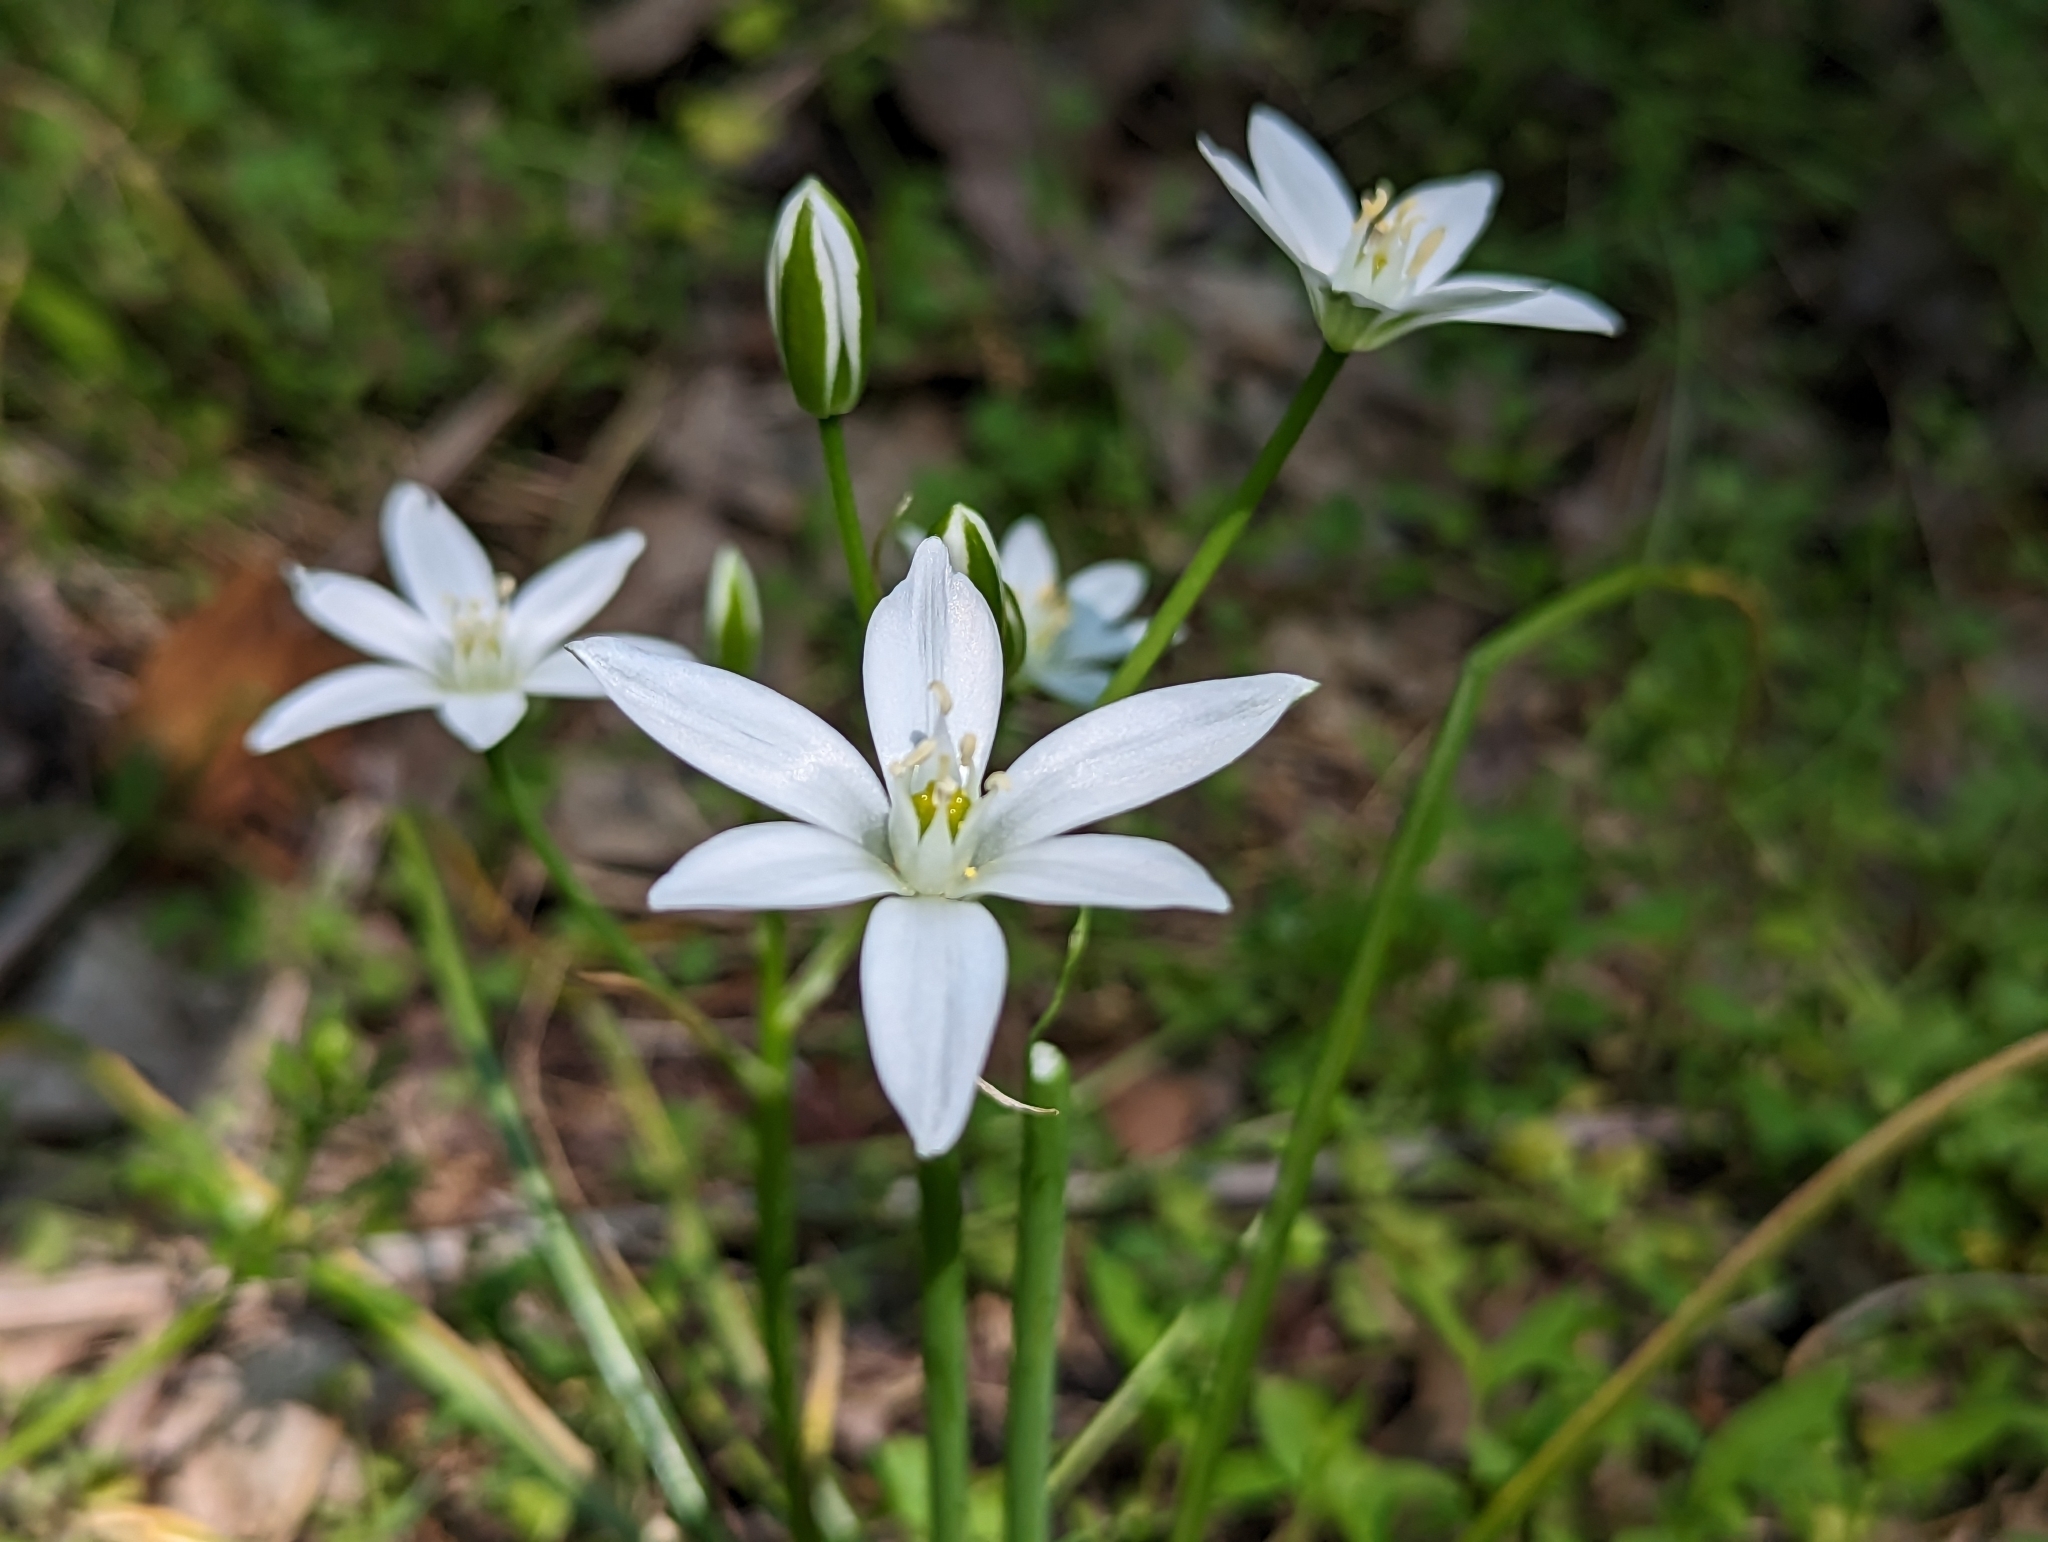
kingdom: Plantae
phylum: Tracheophyta
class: Liliopsida
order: Asparagales
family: Asparagaceae
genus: Ornithogalum
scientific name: Ornithogalum umbellatum
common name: Garden star-of-bethlehem
